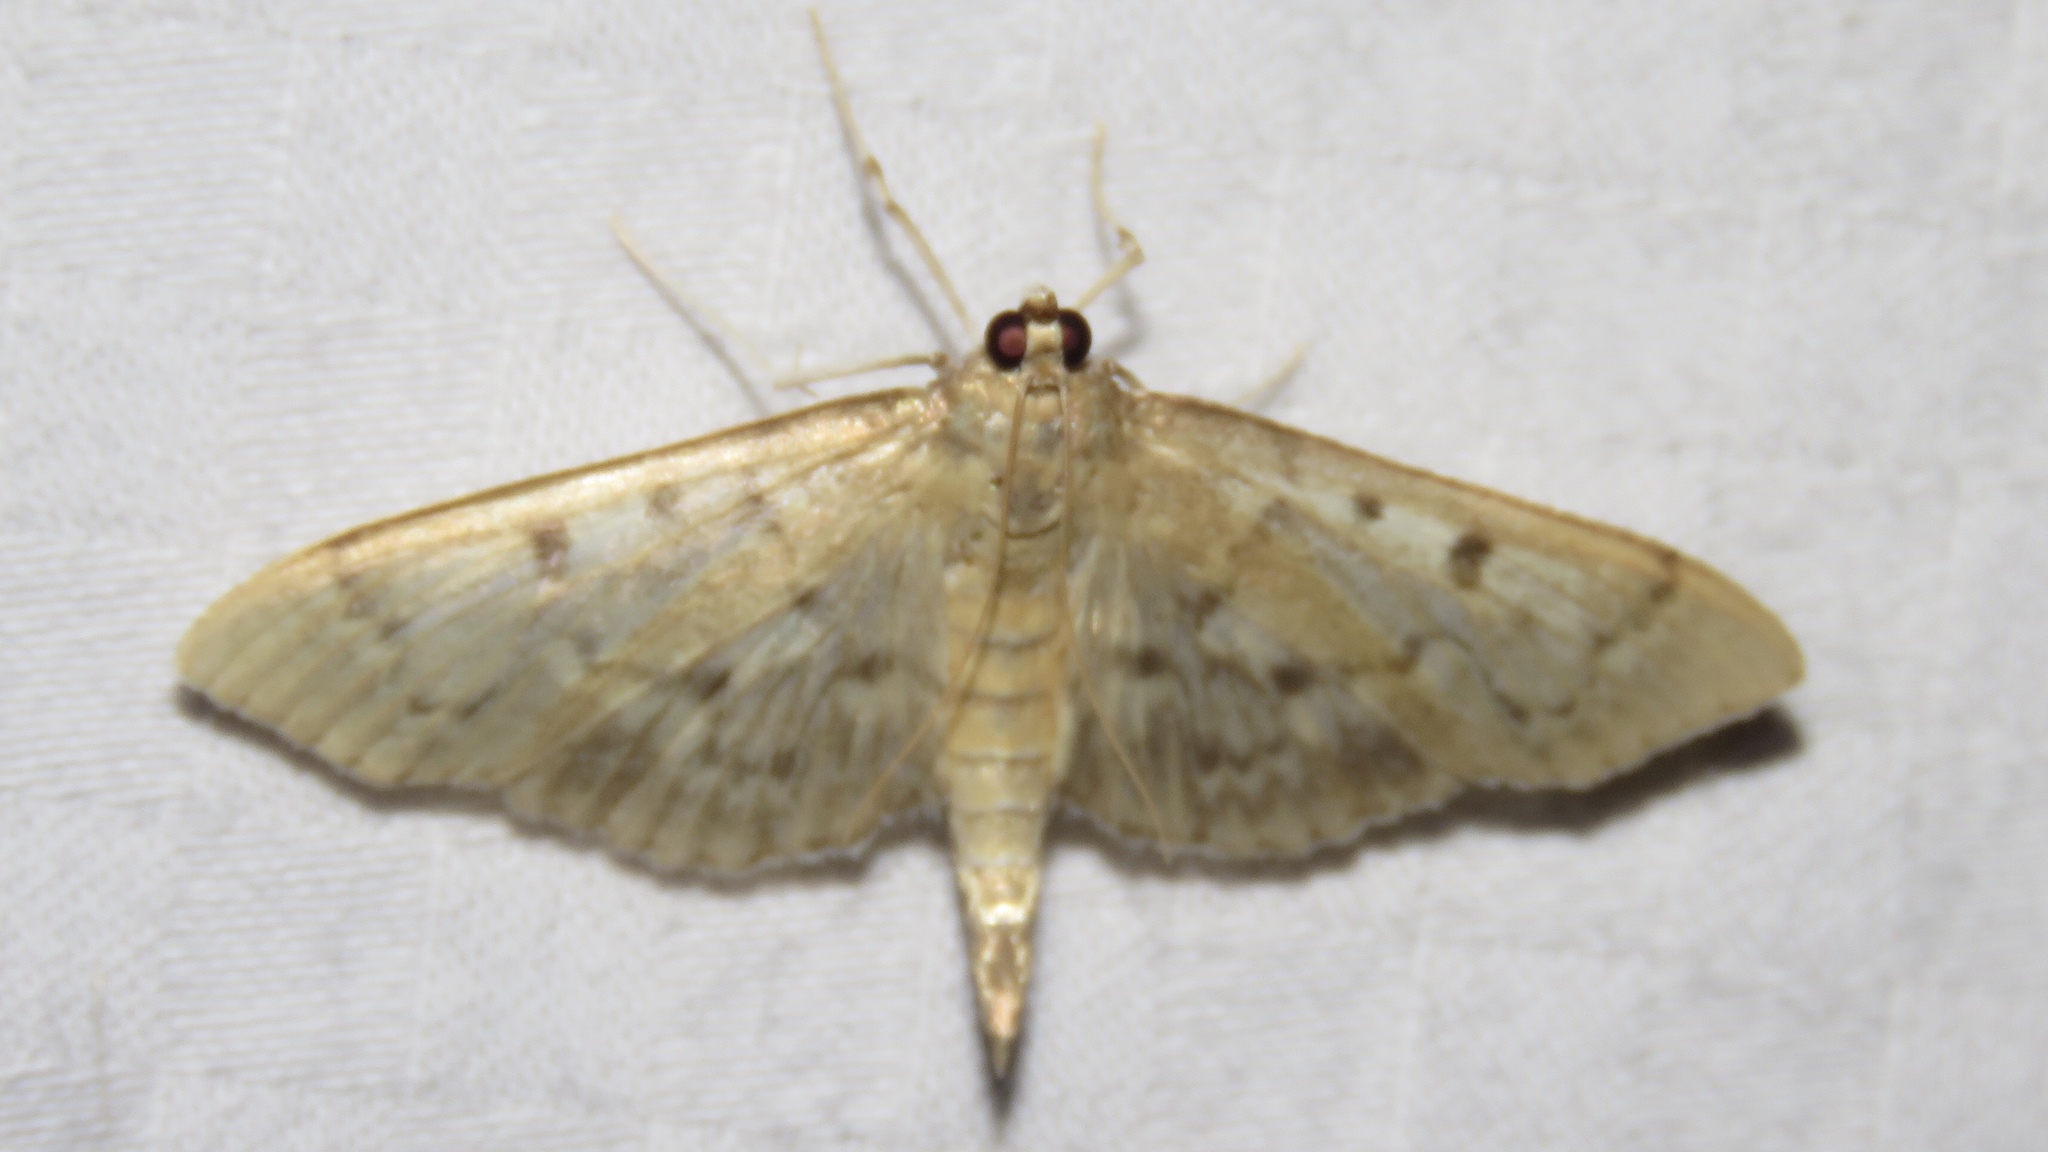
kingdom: Animalia
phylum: Arthropoda
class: Insecta
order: Lepidoptera
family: Crambidae
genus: Herpetogramma
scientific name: Herpetogramma aeglealis
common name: Serpentine webworm moth
